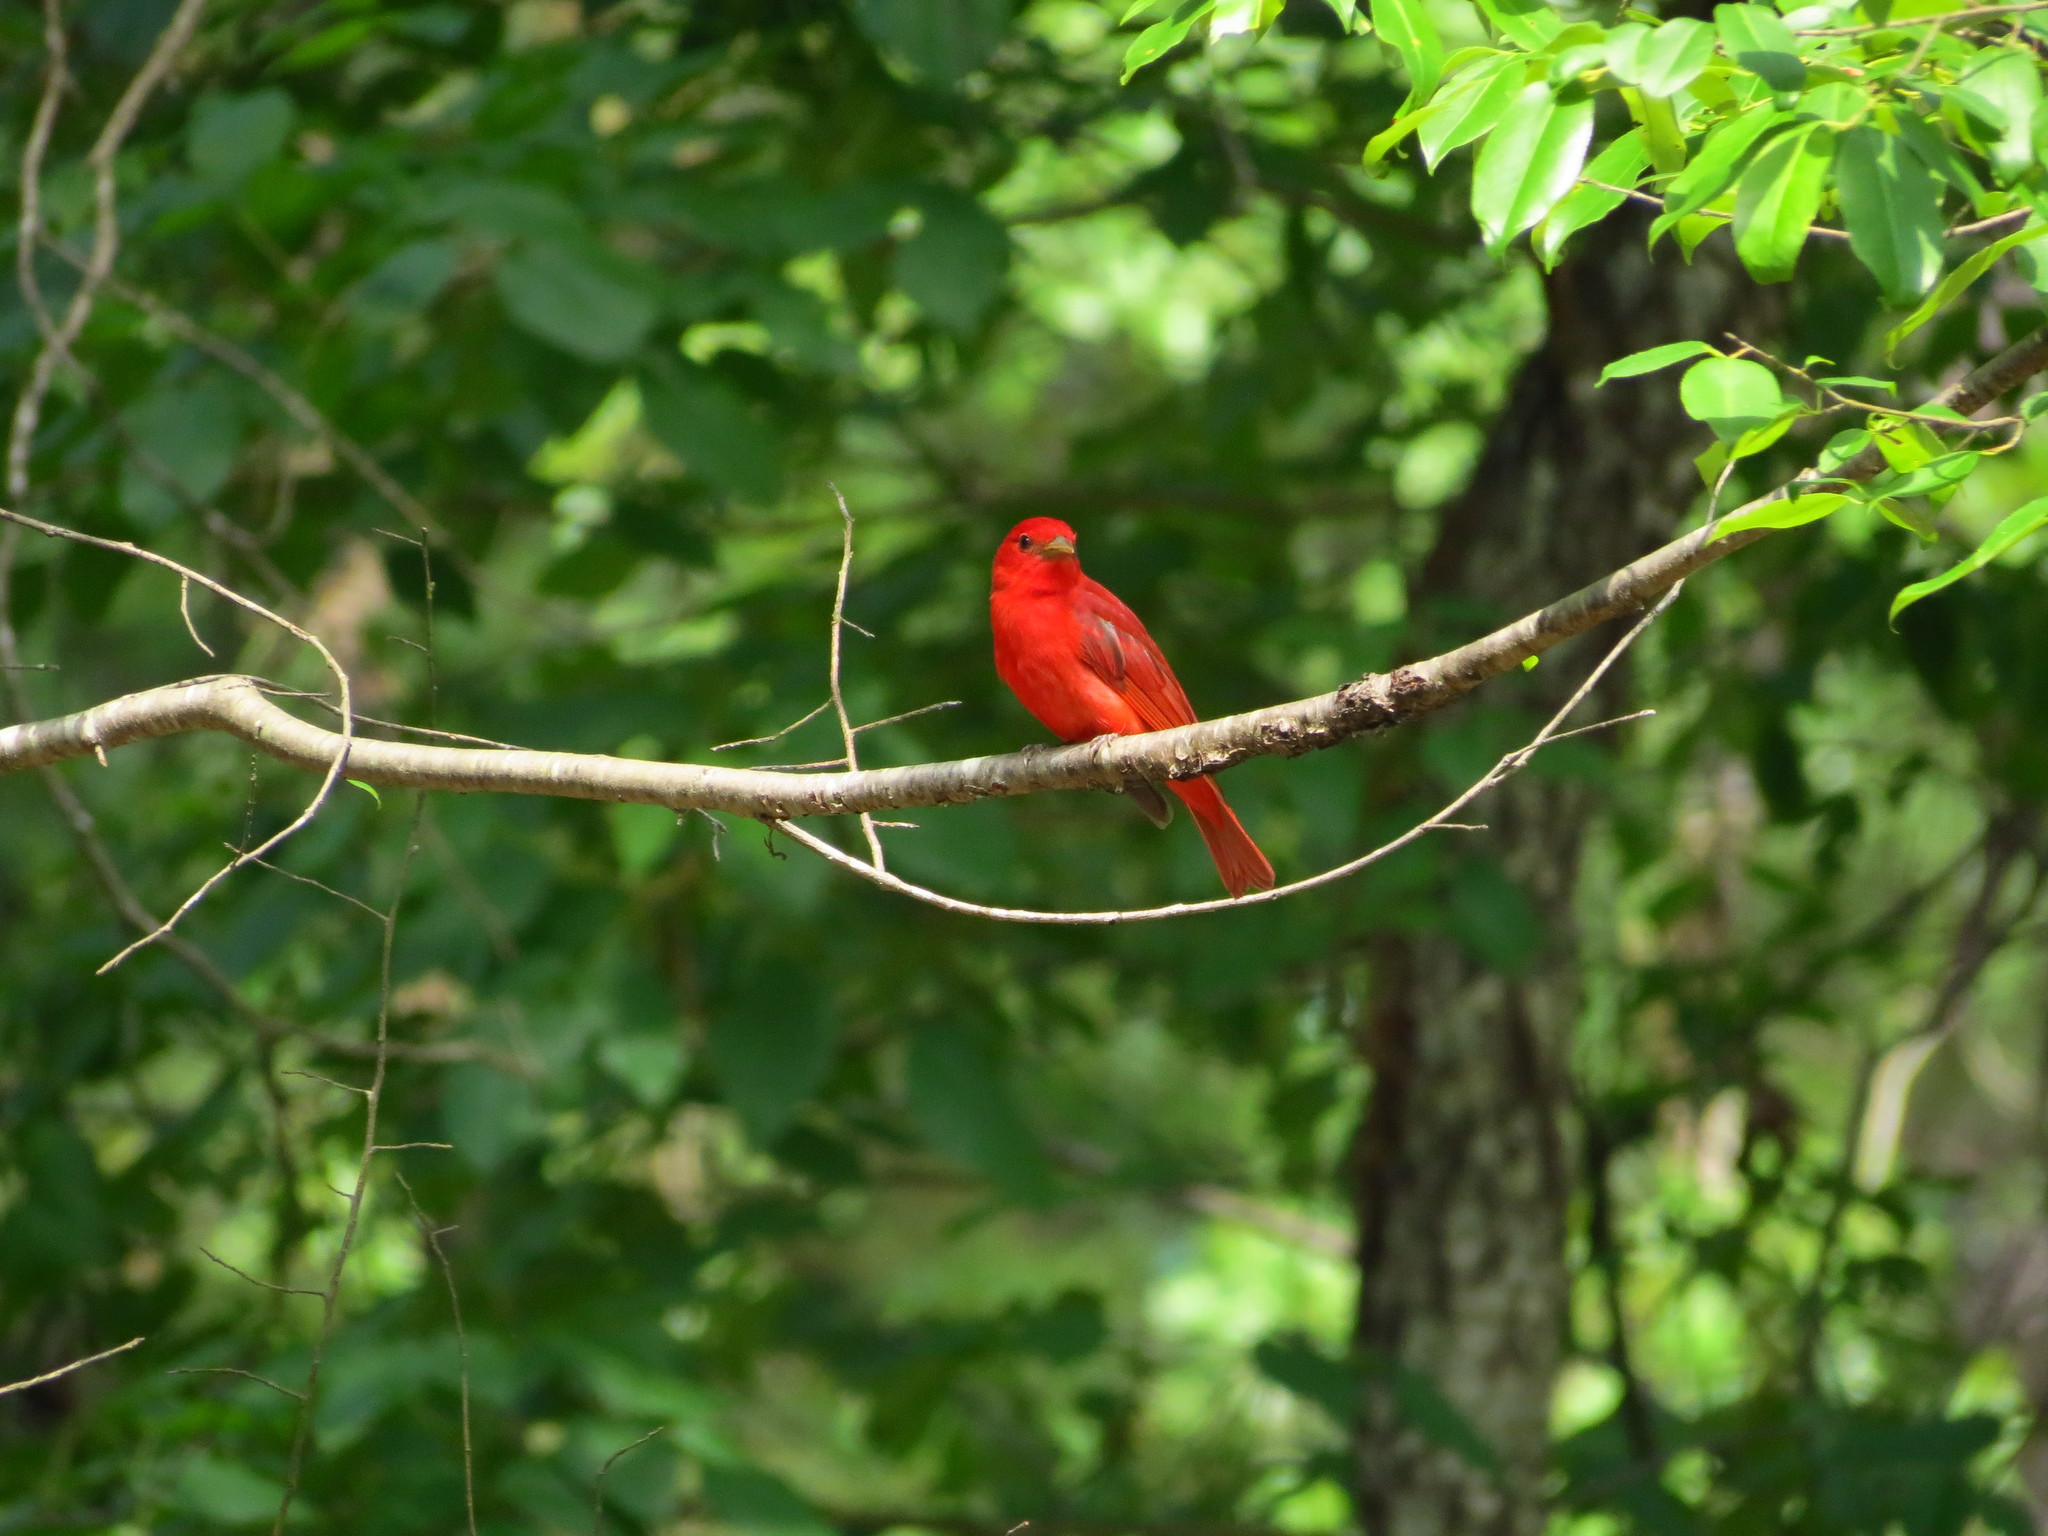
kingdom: Animalia
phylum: Chordata
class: Aves
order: Passeriformes
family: Cardinalidae
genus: Piranga
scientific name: Piranga rubra
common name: Summer tanager
